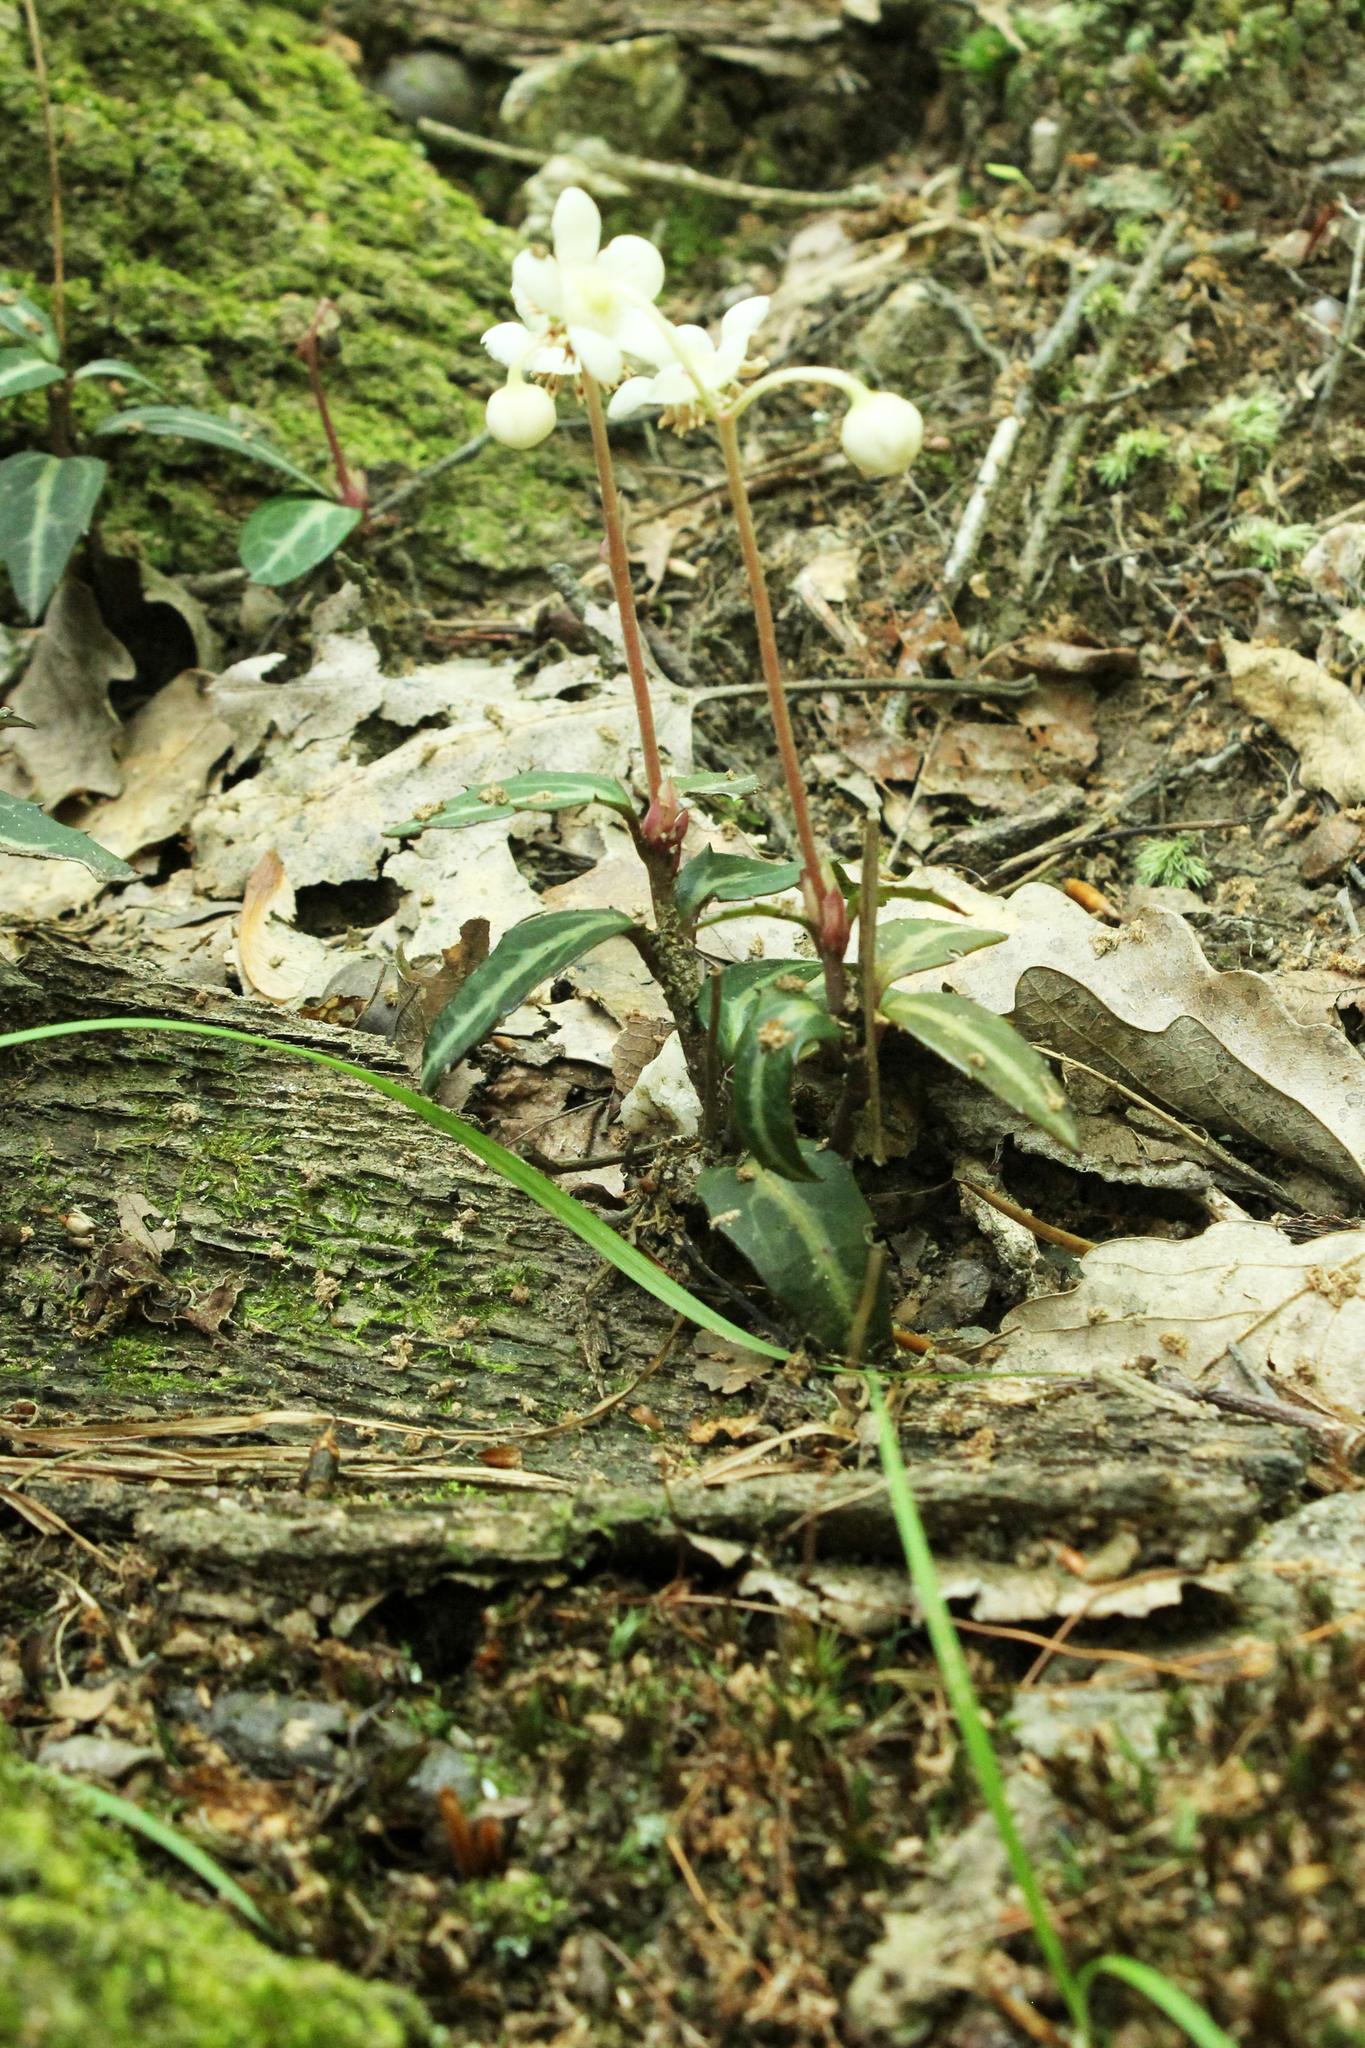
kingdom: Plantae
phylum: Tracheophyta
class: Magnoliopsida
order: Ericales
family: Ericaceae
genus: Chimaphila
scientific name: Chimaphila maculata
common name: Spotted pipsissewa
